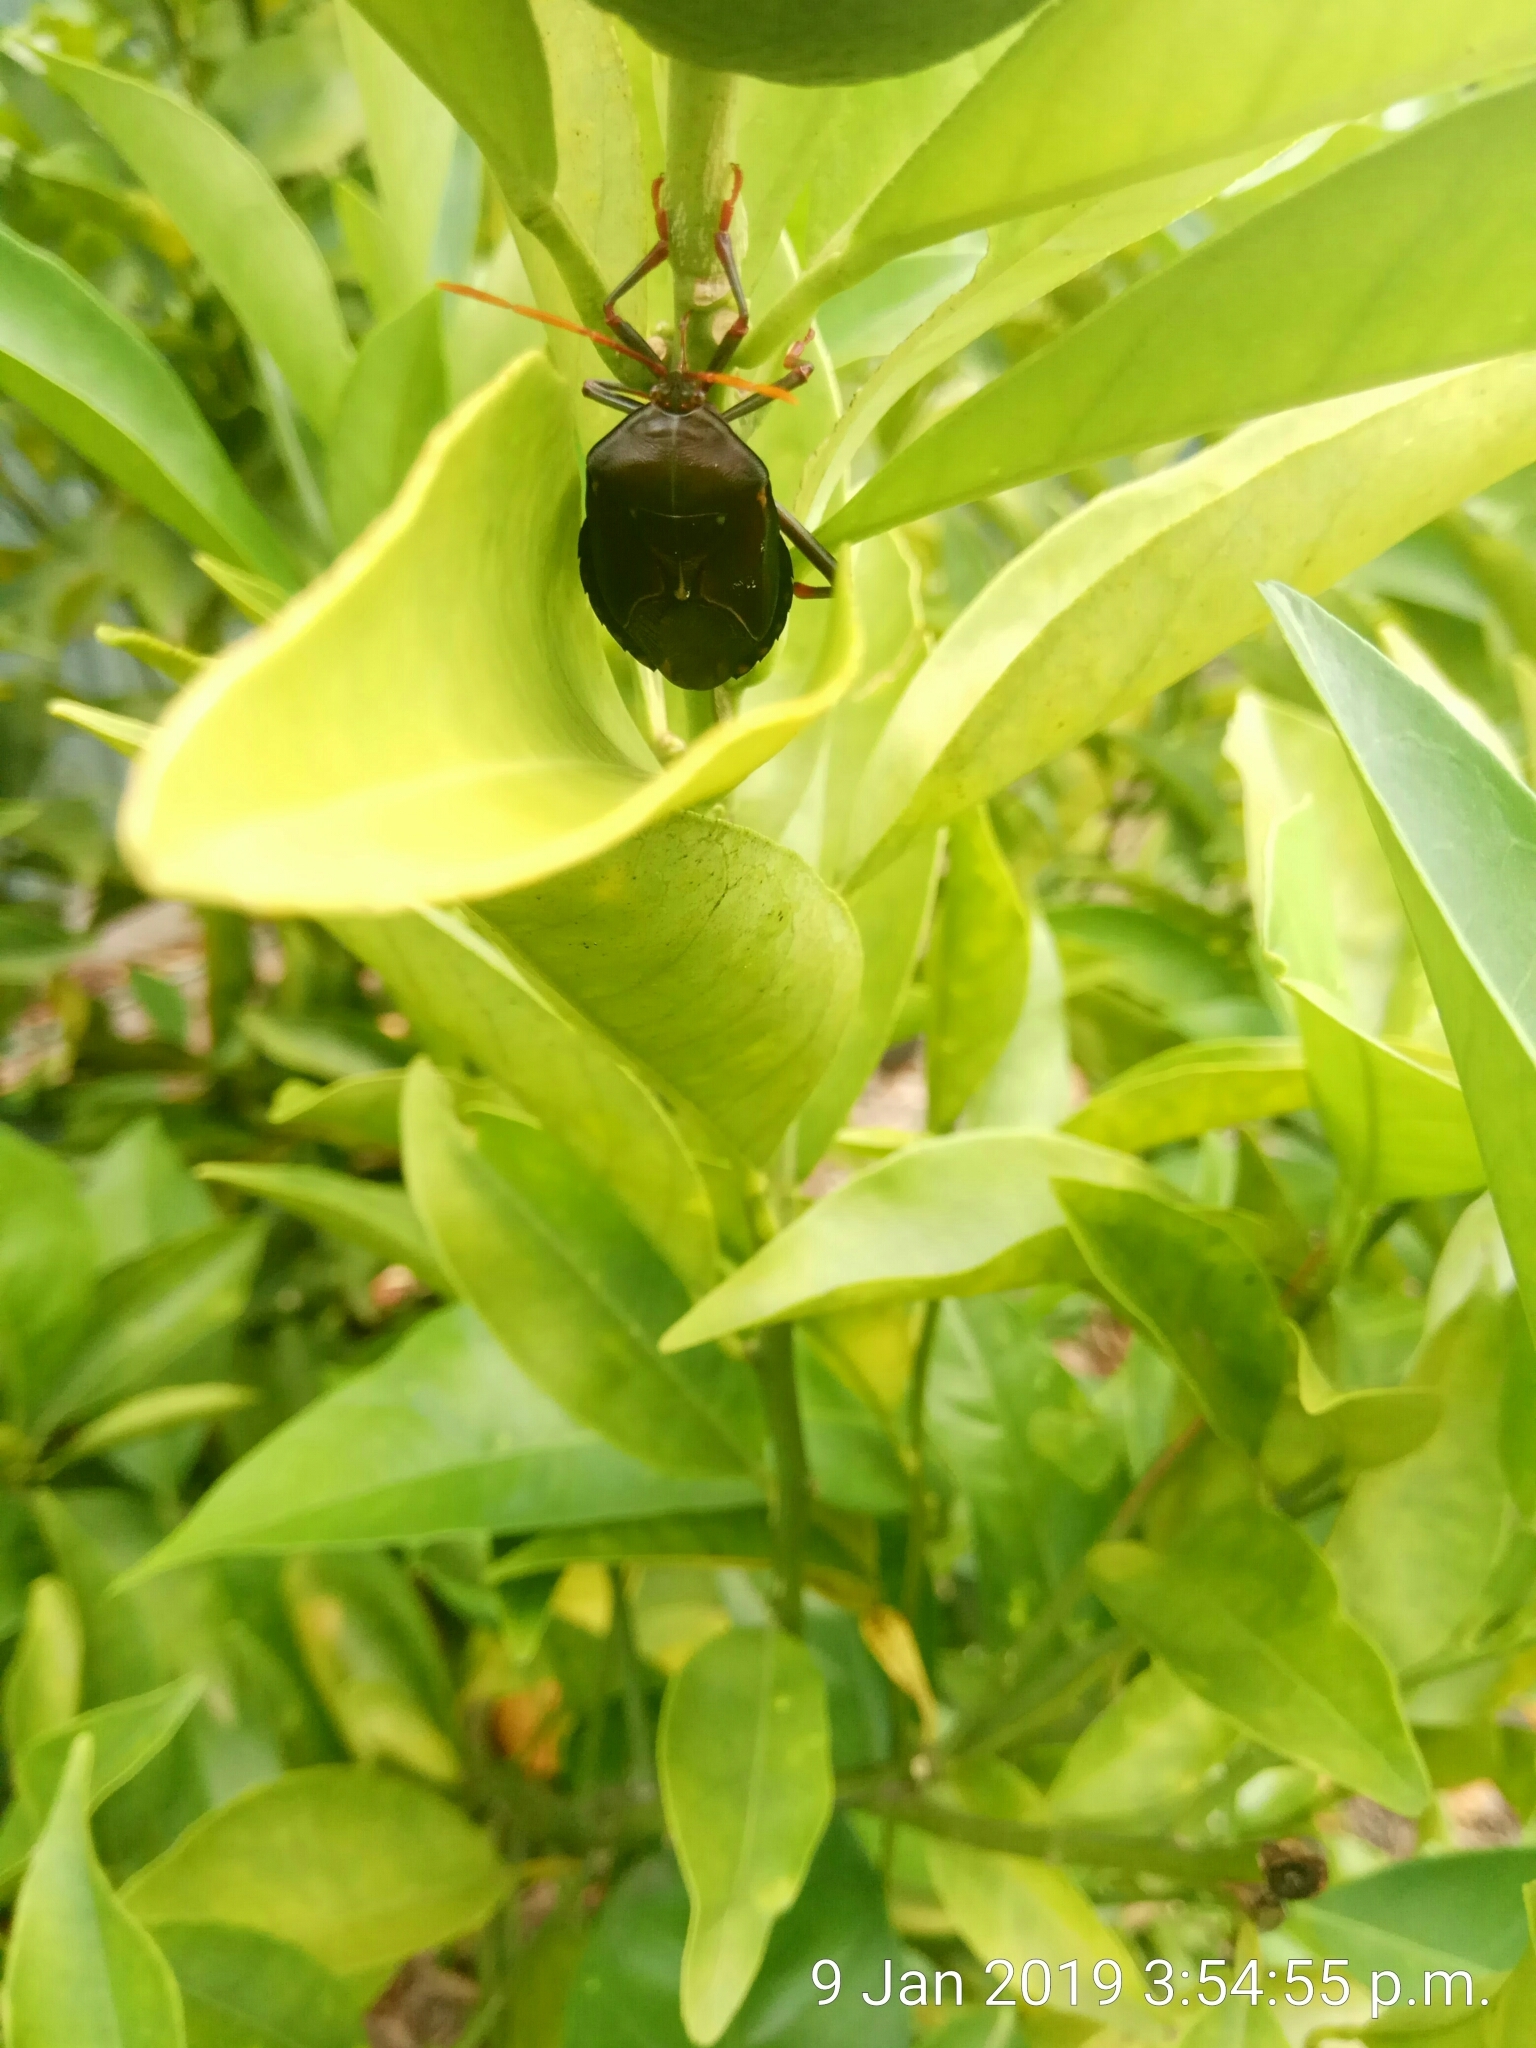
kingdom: Animalia
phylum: Arthropoda
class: Insecta
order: Hemiptera
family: Tessaratomidae
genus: Musgraveia
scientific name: Musgraveia sulciventris
